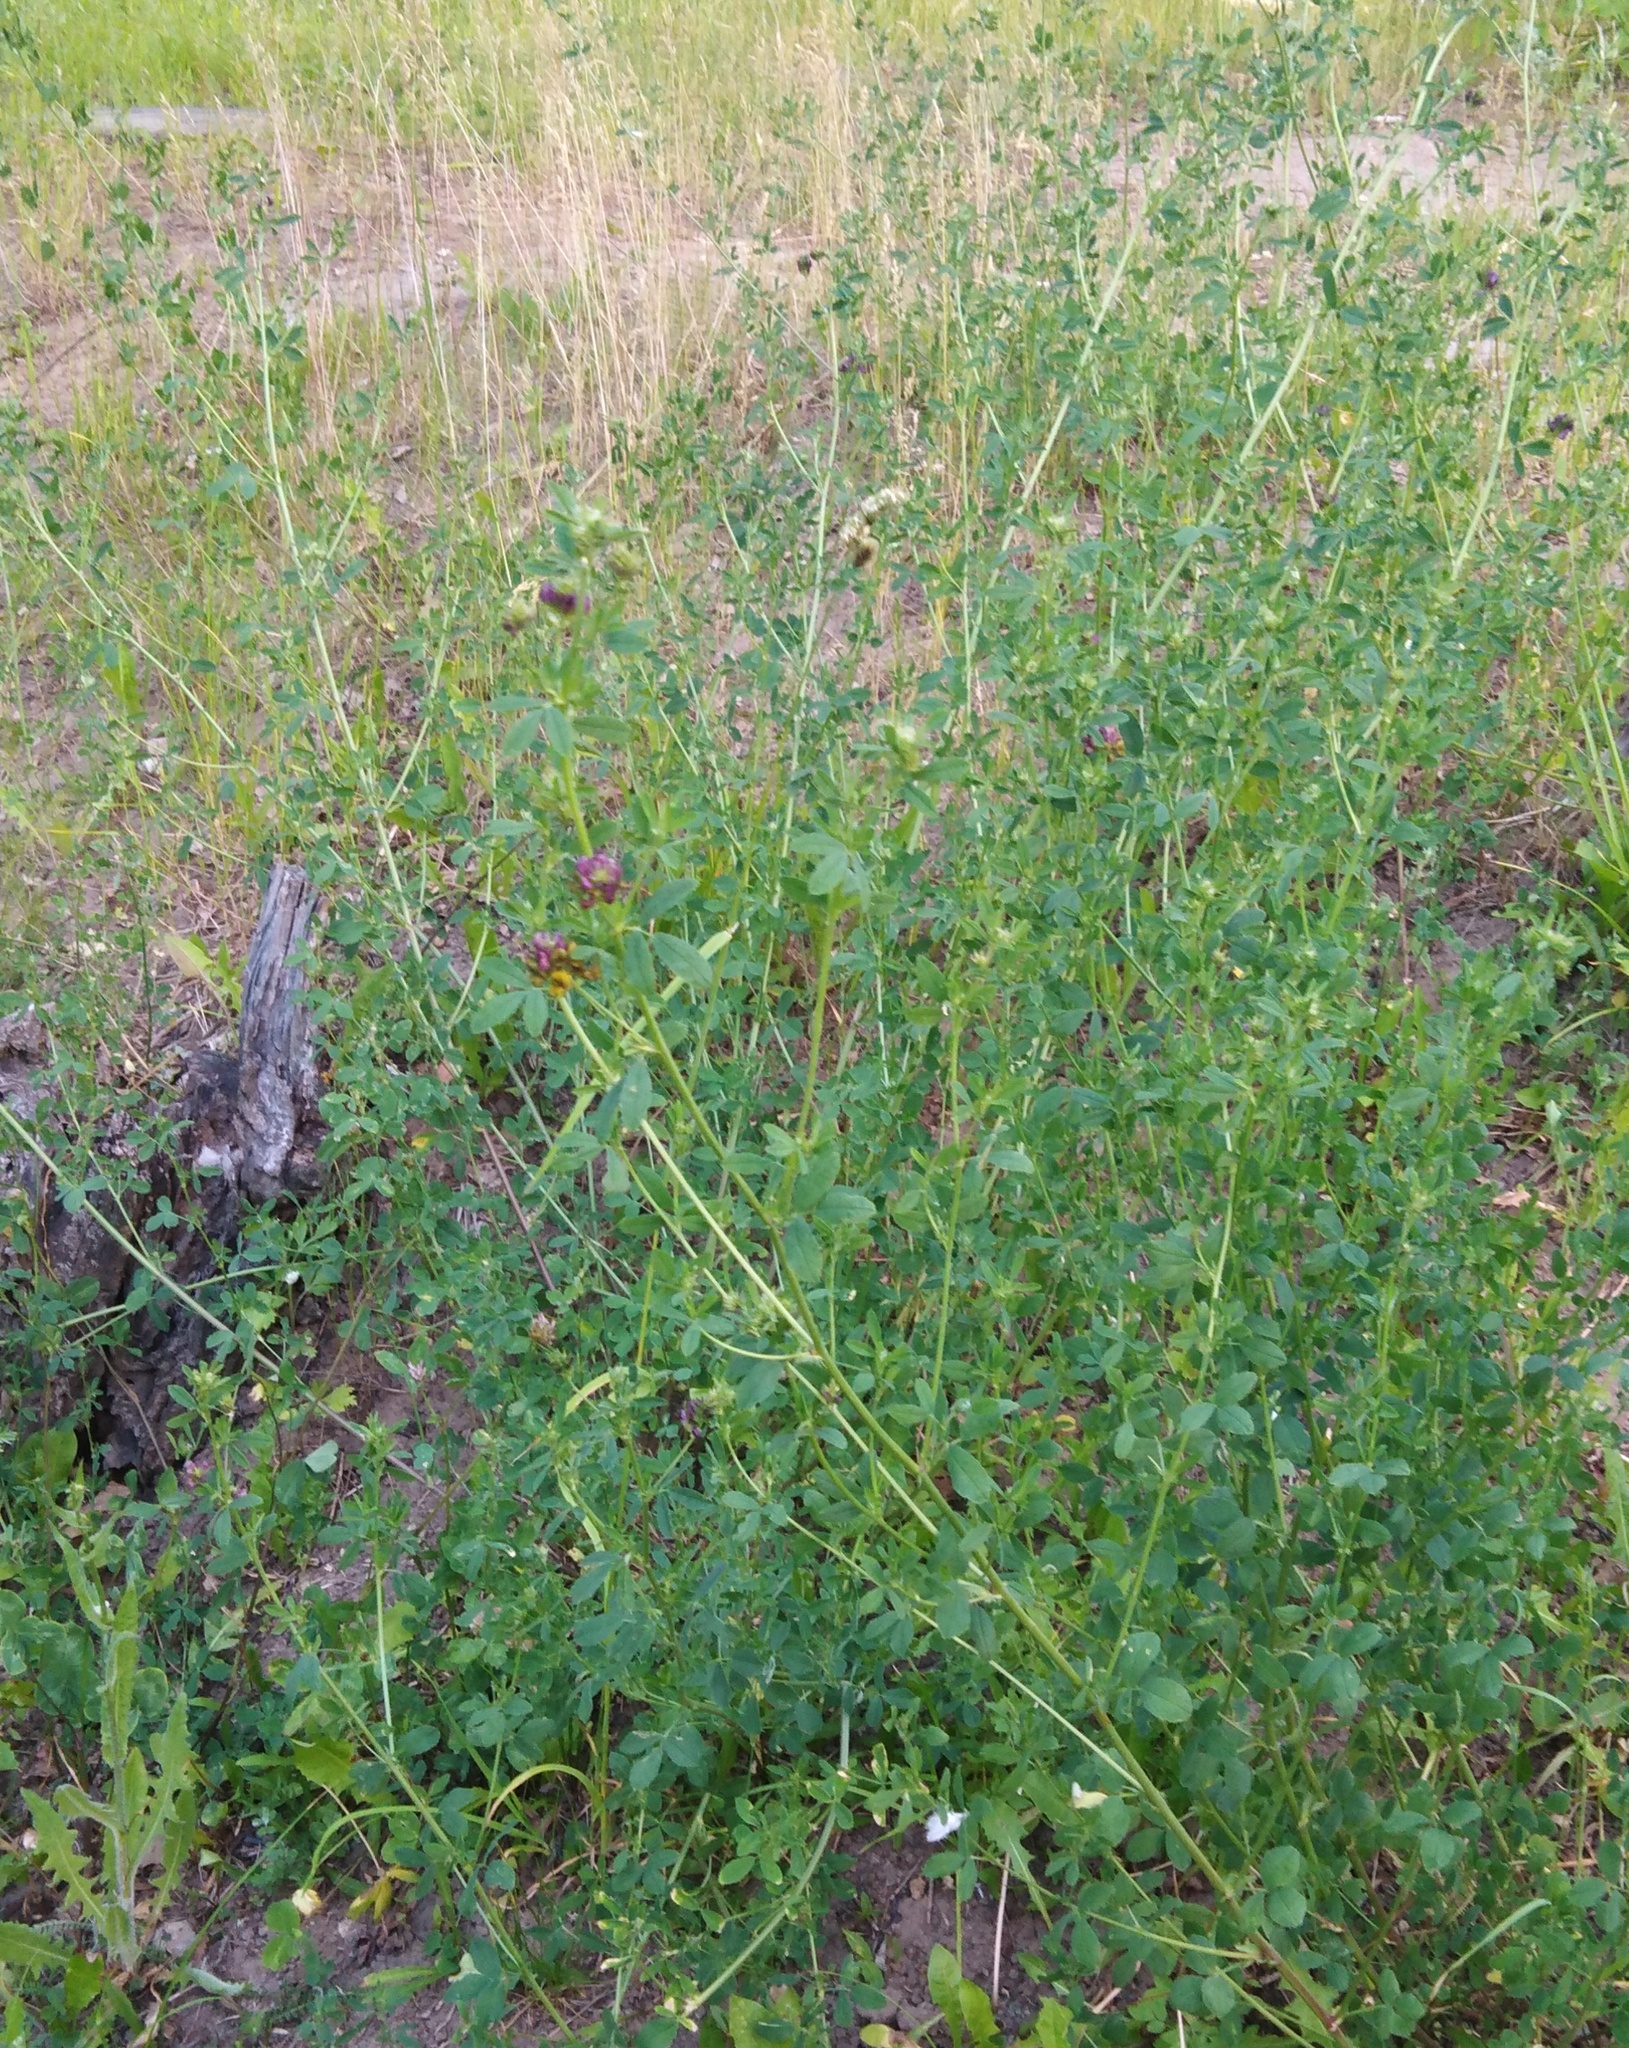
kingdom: Plantae
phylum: Tracheophyta
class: Magnoliopsida
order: Fabales
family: Fabaceae
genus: Medicago
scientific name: Medicago varia
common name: Sand lucerne
